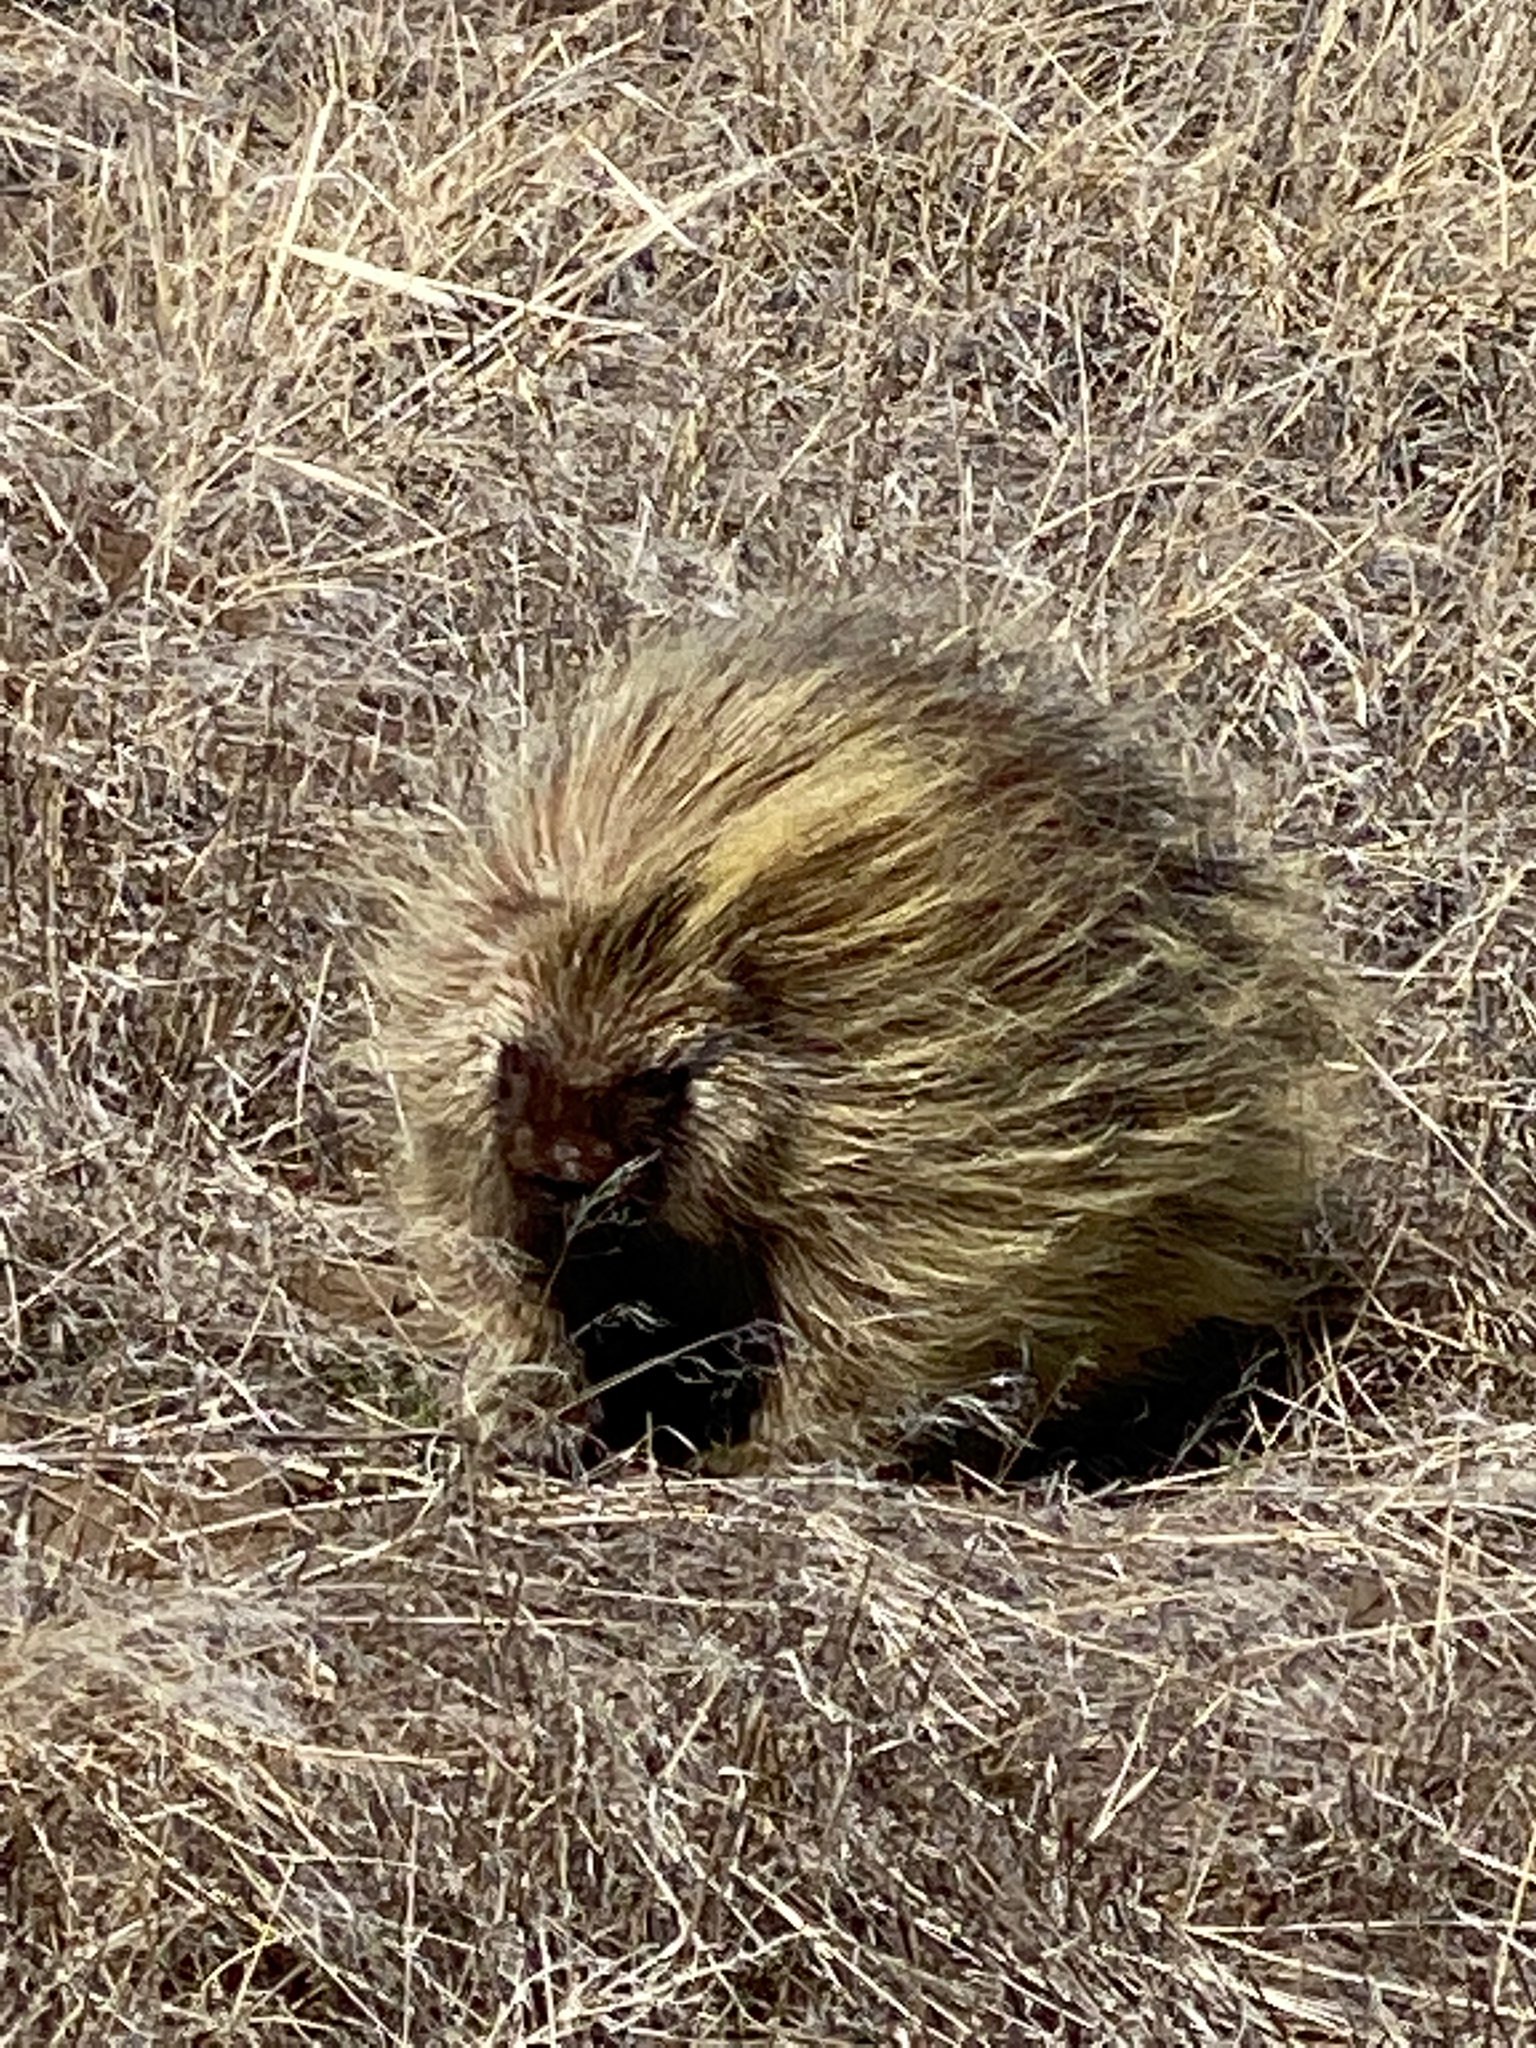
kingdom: Animalia
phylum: Chordata
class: Mammalia
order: Rodentia
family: Erethizontidae
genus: Erethizon
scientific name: Erethizon dorsatus
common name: North american porcupine
